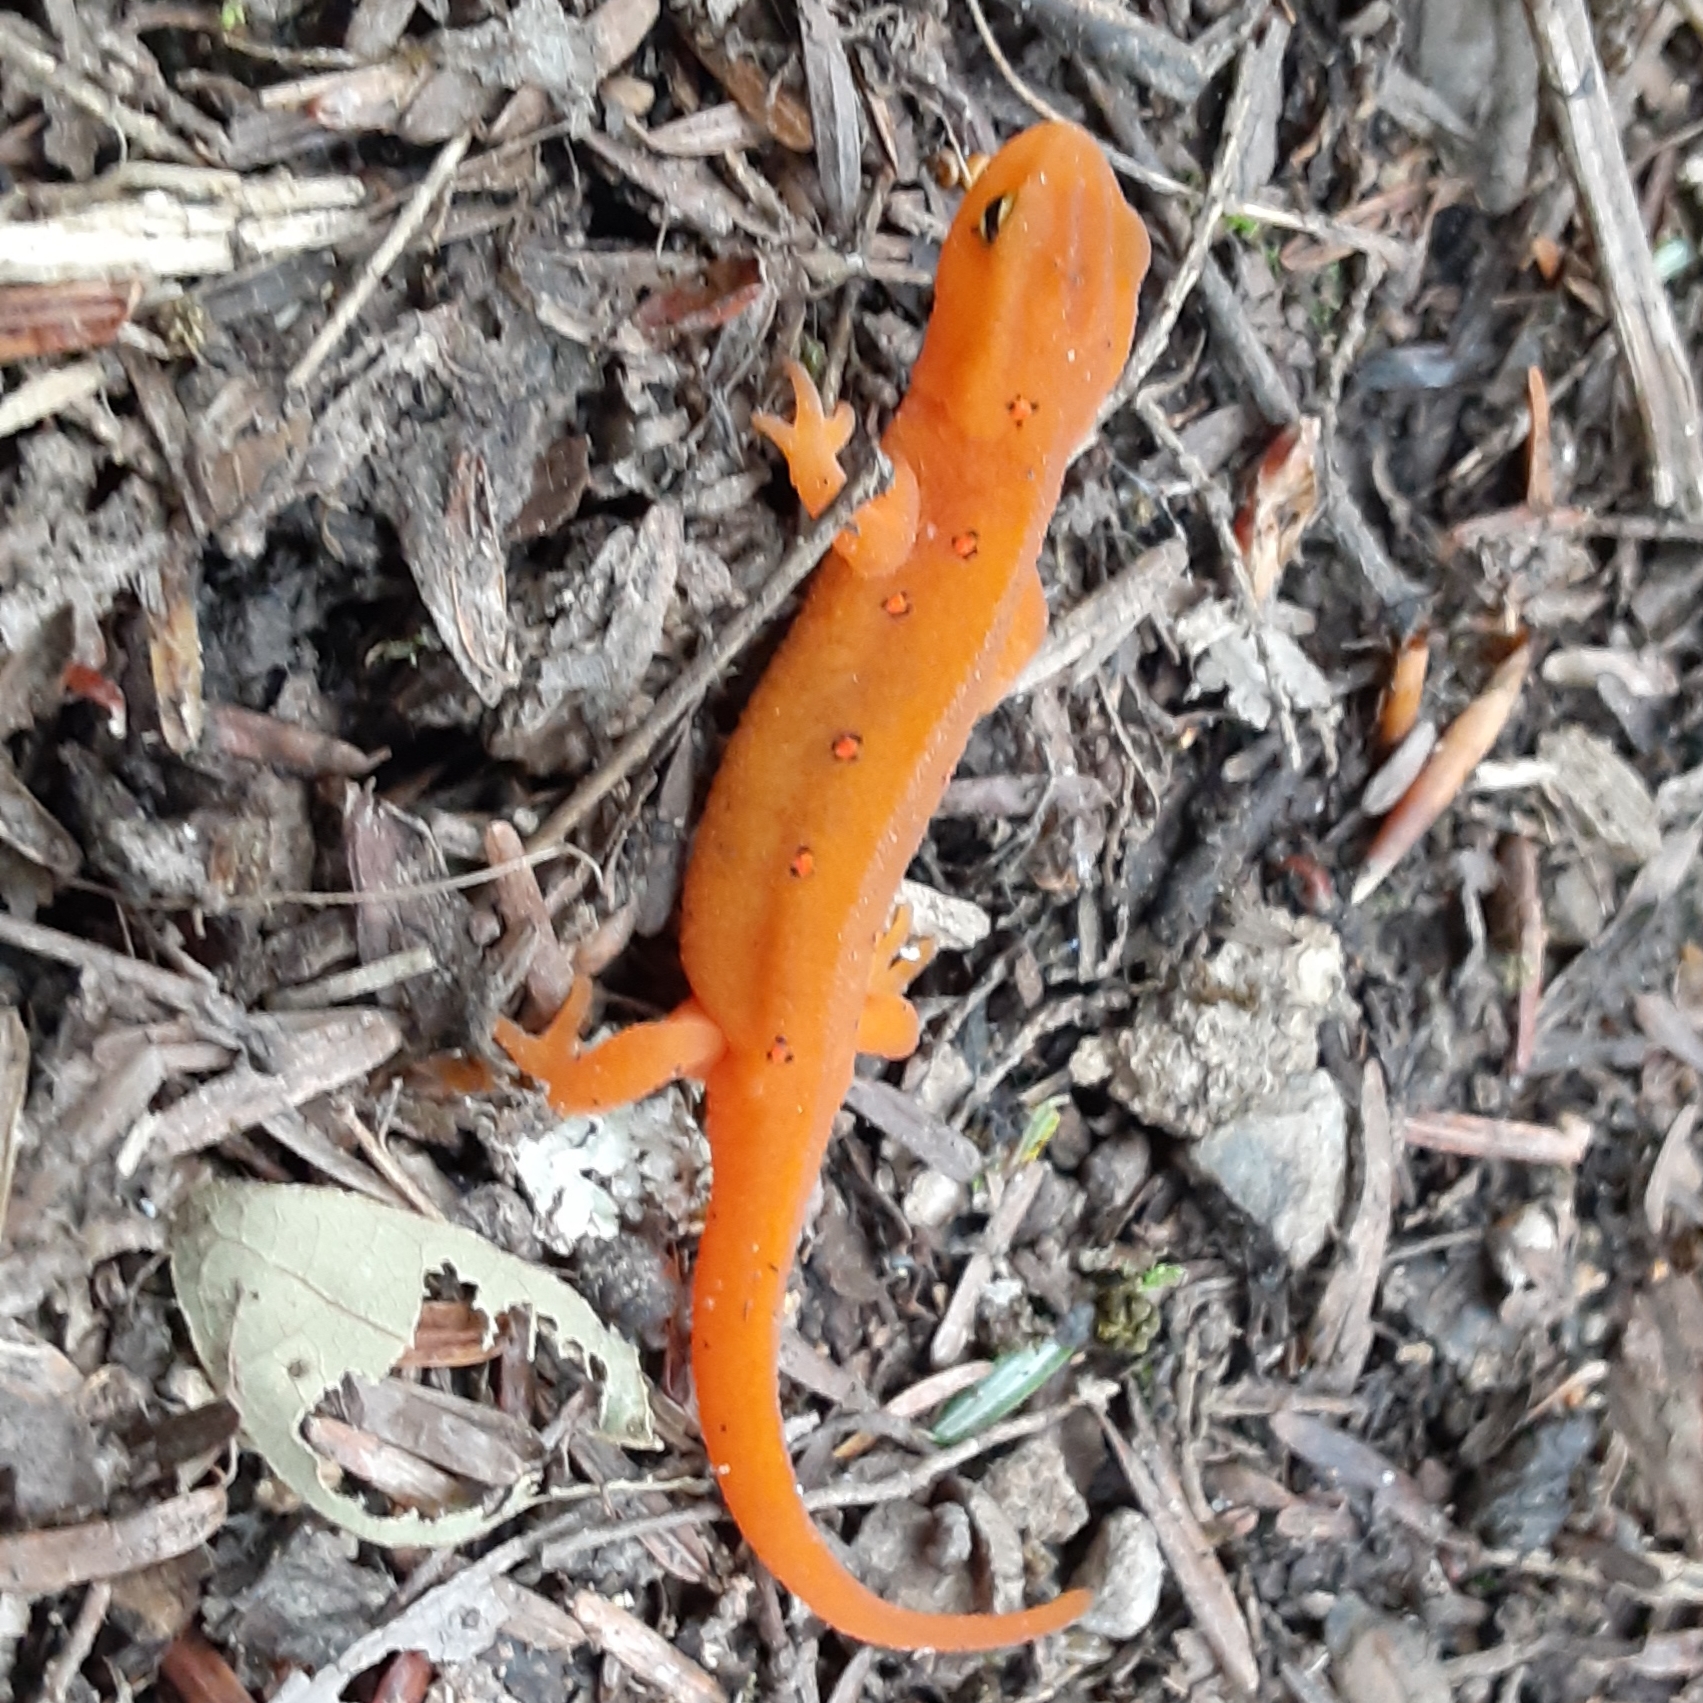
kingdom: Animalia
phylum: Chordata
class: Amphibia
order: Caudata
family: Salamandridae
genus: Notophthalmus
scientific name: Notophthalmus viridescens
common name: Eastern newt
